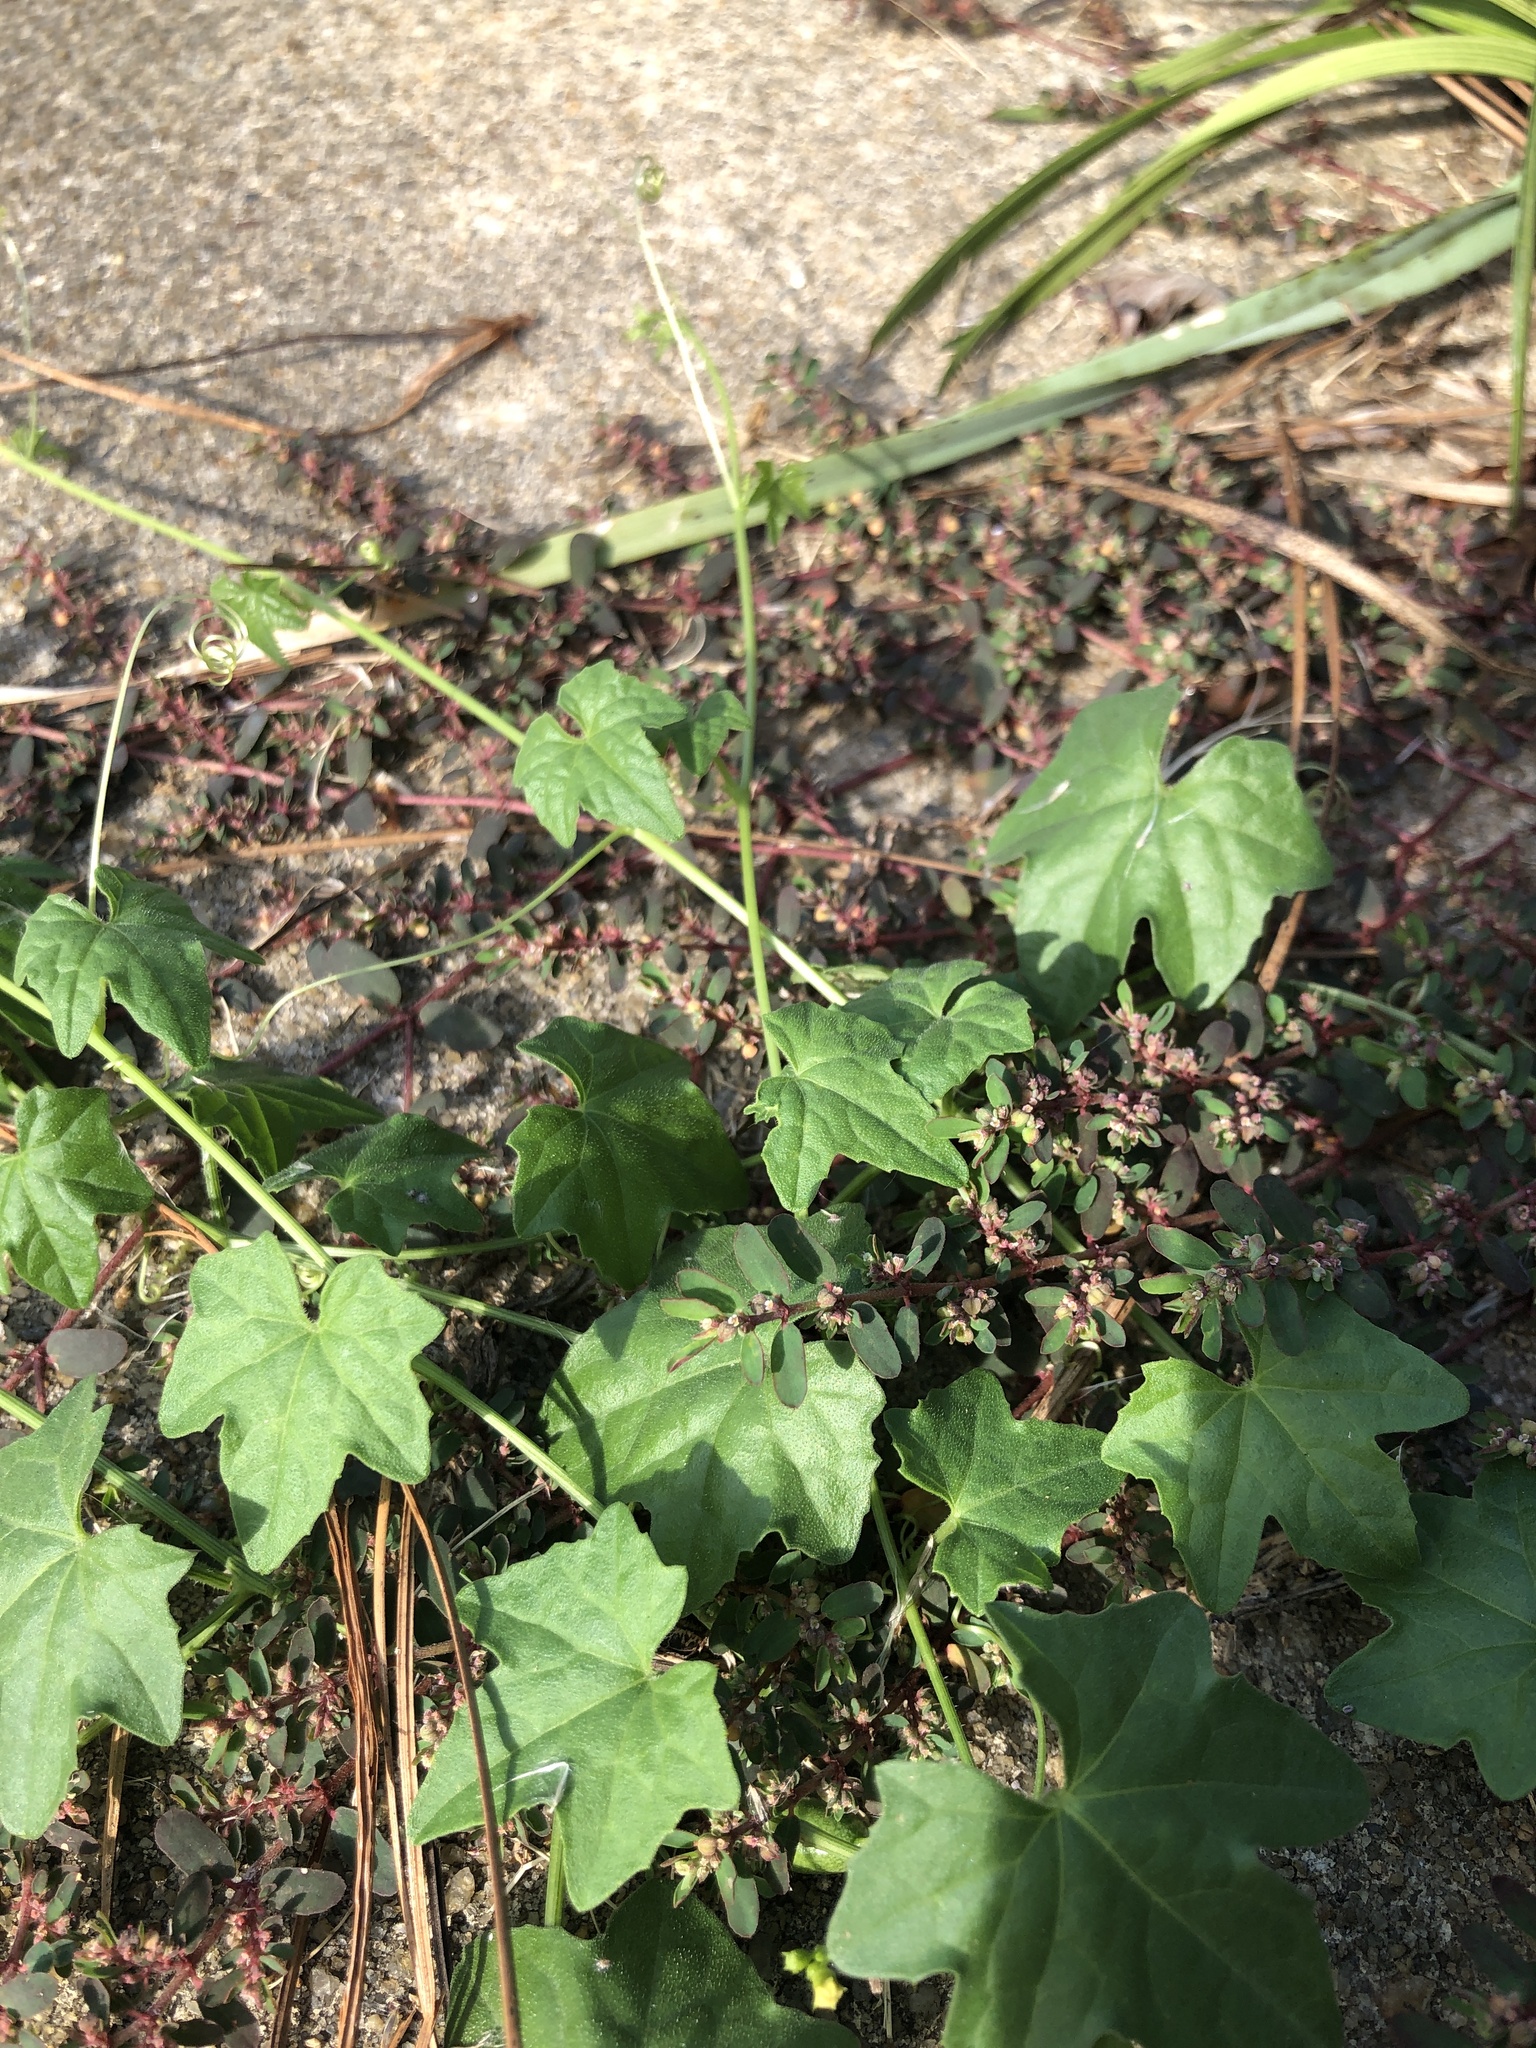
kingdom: Plantae
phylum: Tracheophyta
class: Magnoliopsida
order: Cucurbitales
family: Cucurbitaceae
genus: Melothria
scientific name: Melothria pendula
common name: Creeping-cucumber
